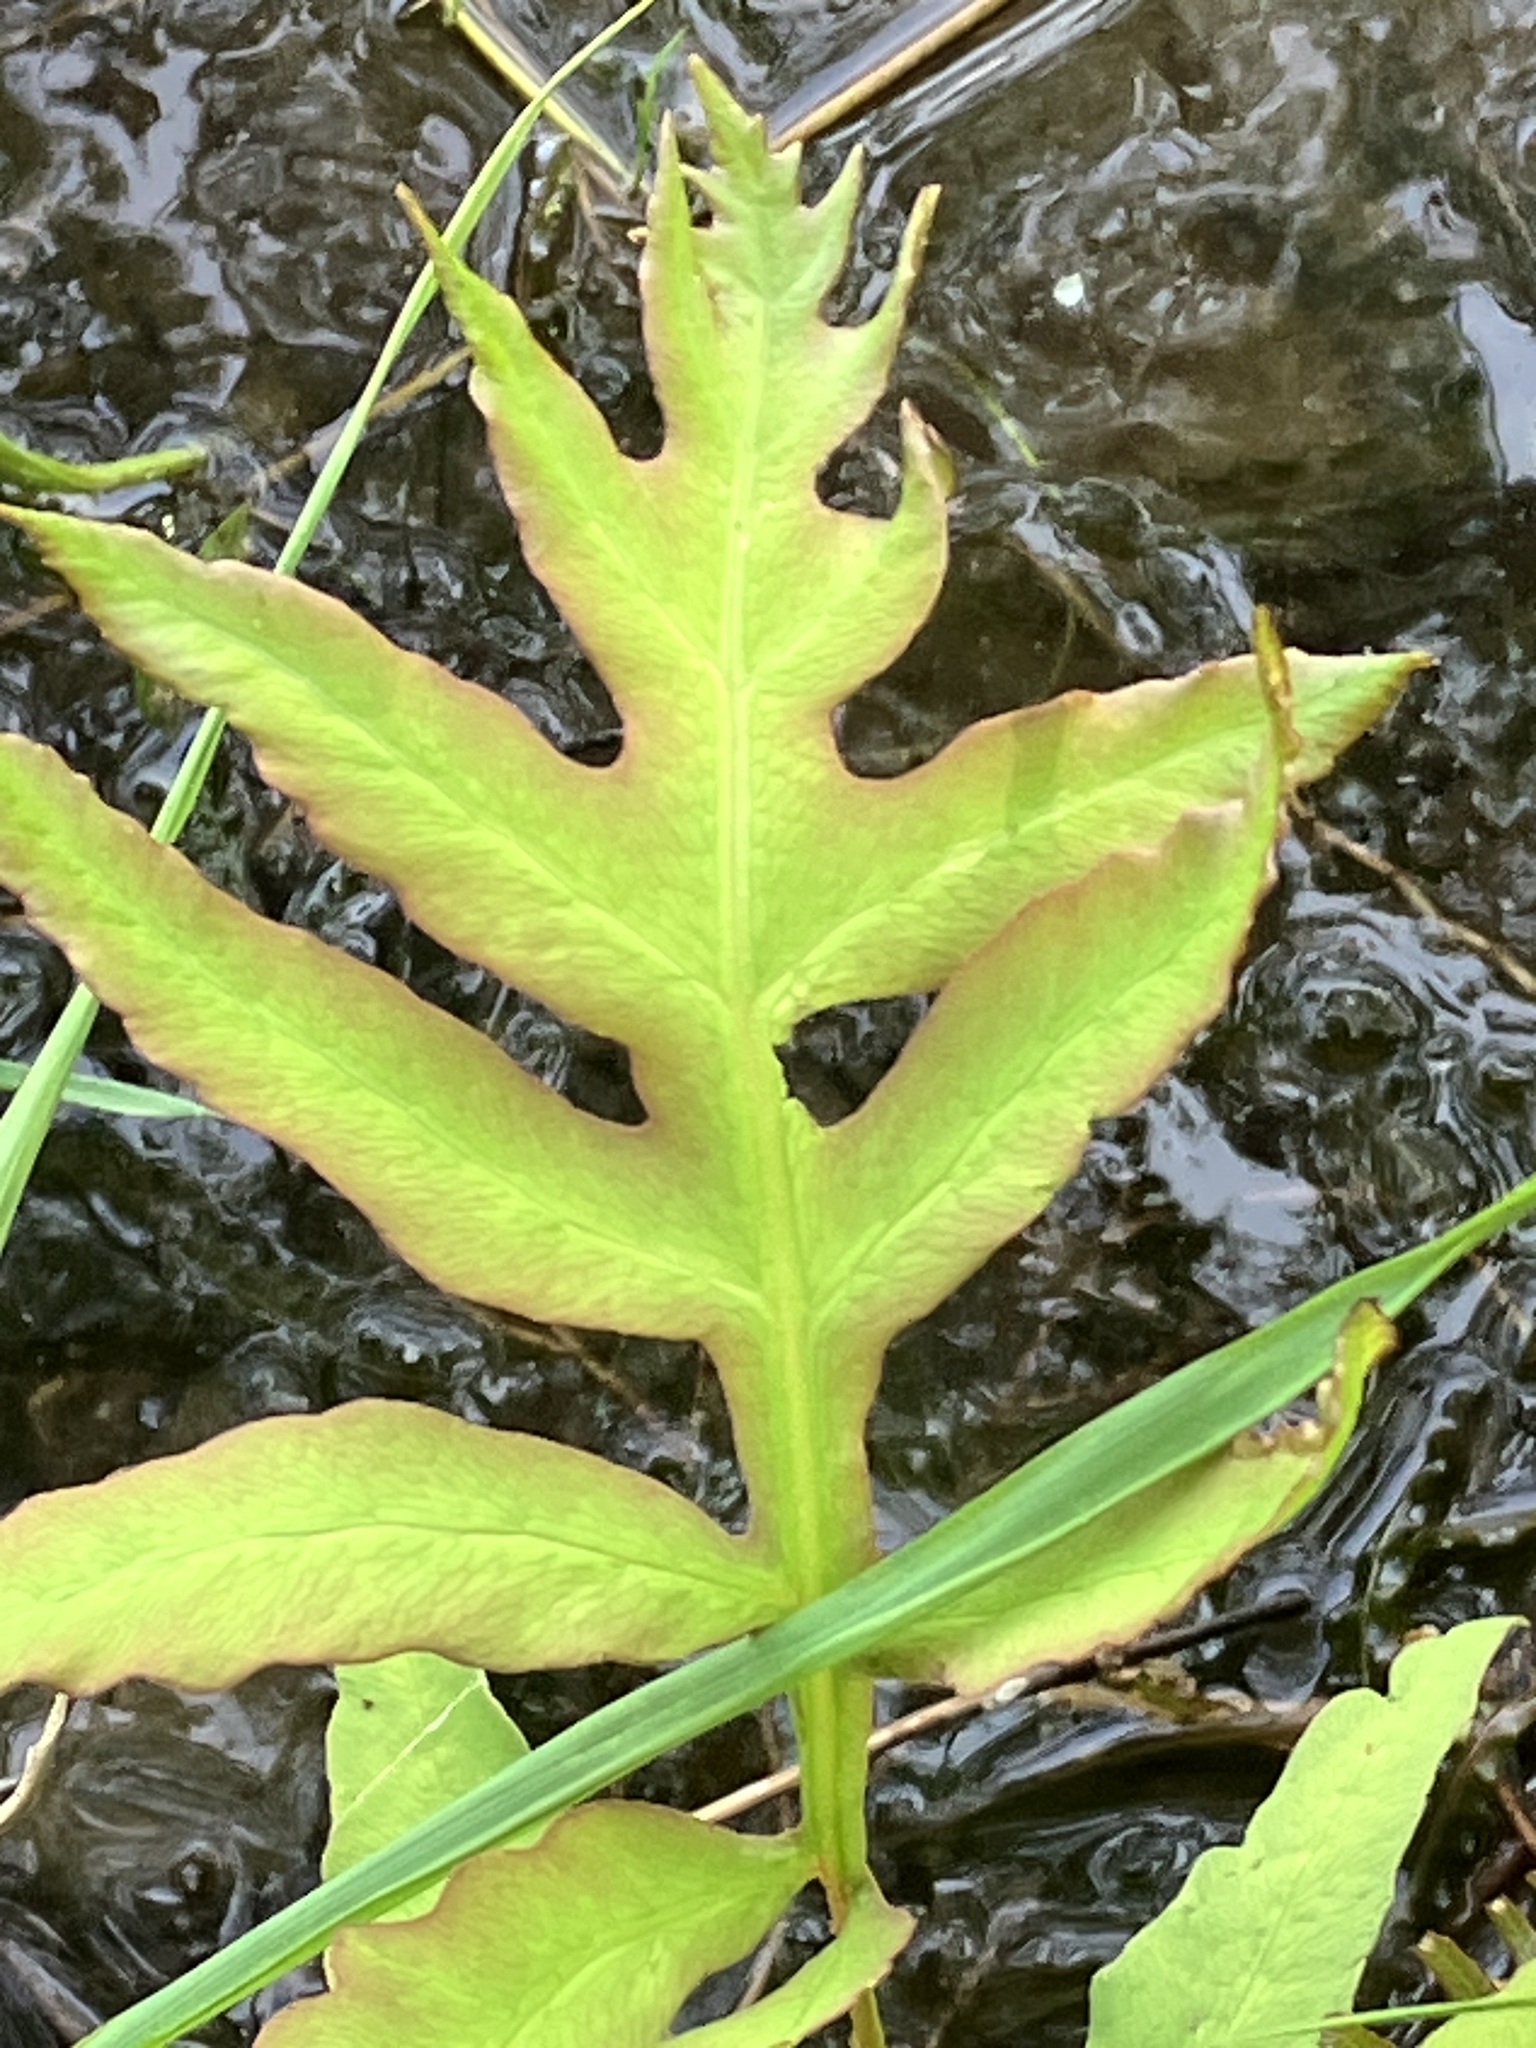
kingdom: Plantae
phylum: Tracheophyta
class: Polypodiopsida
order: Polypodiales
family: Onocleaceae
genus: Onoclea
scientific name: Onoclea sensibilis
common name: Sensitive fern
